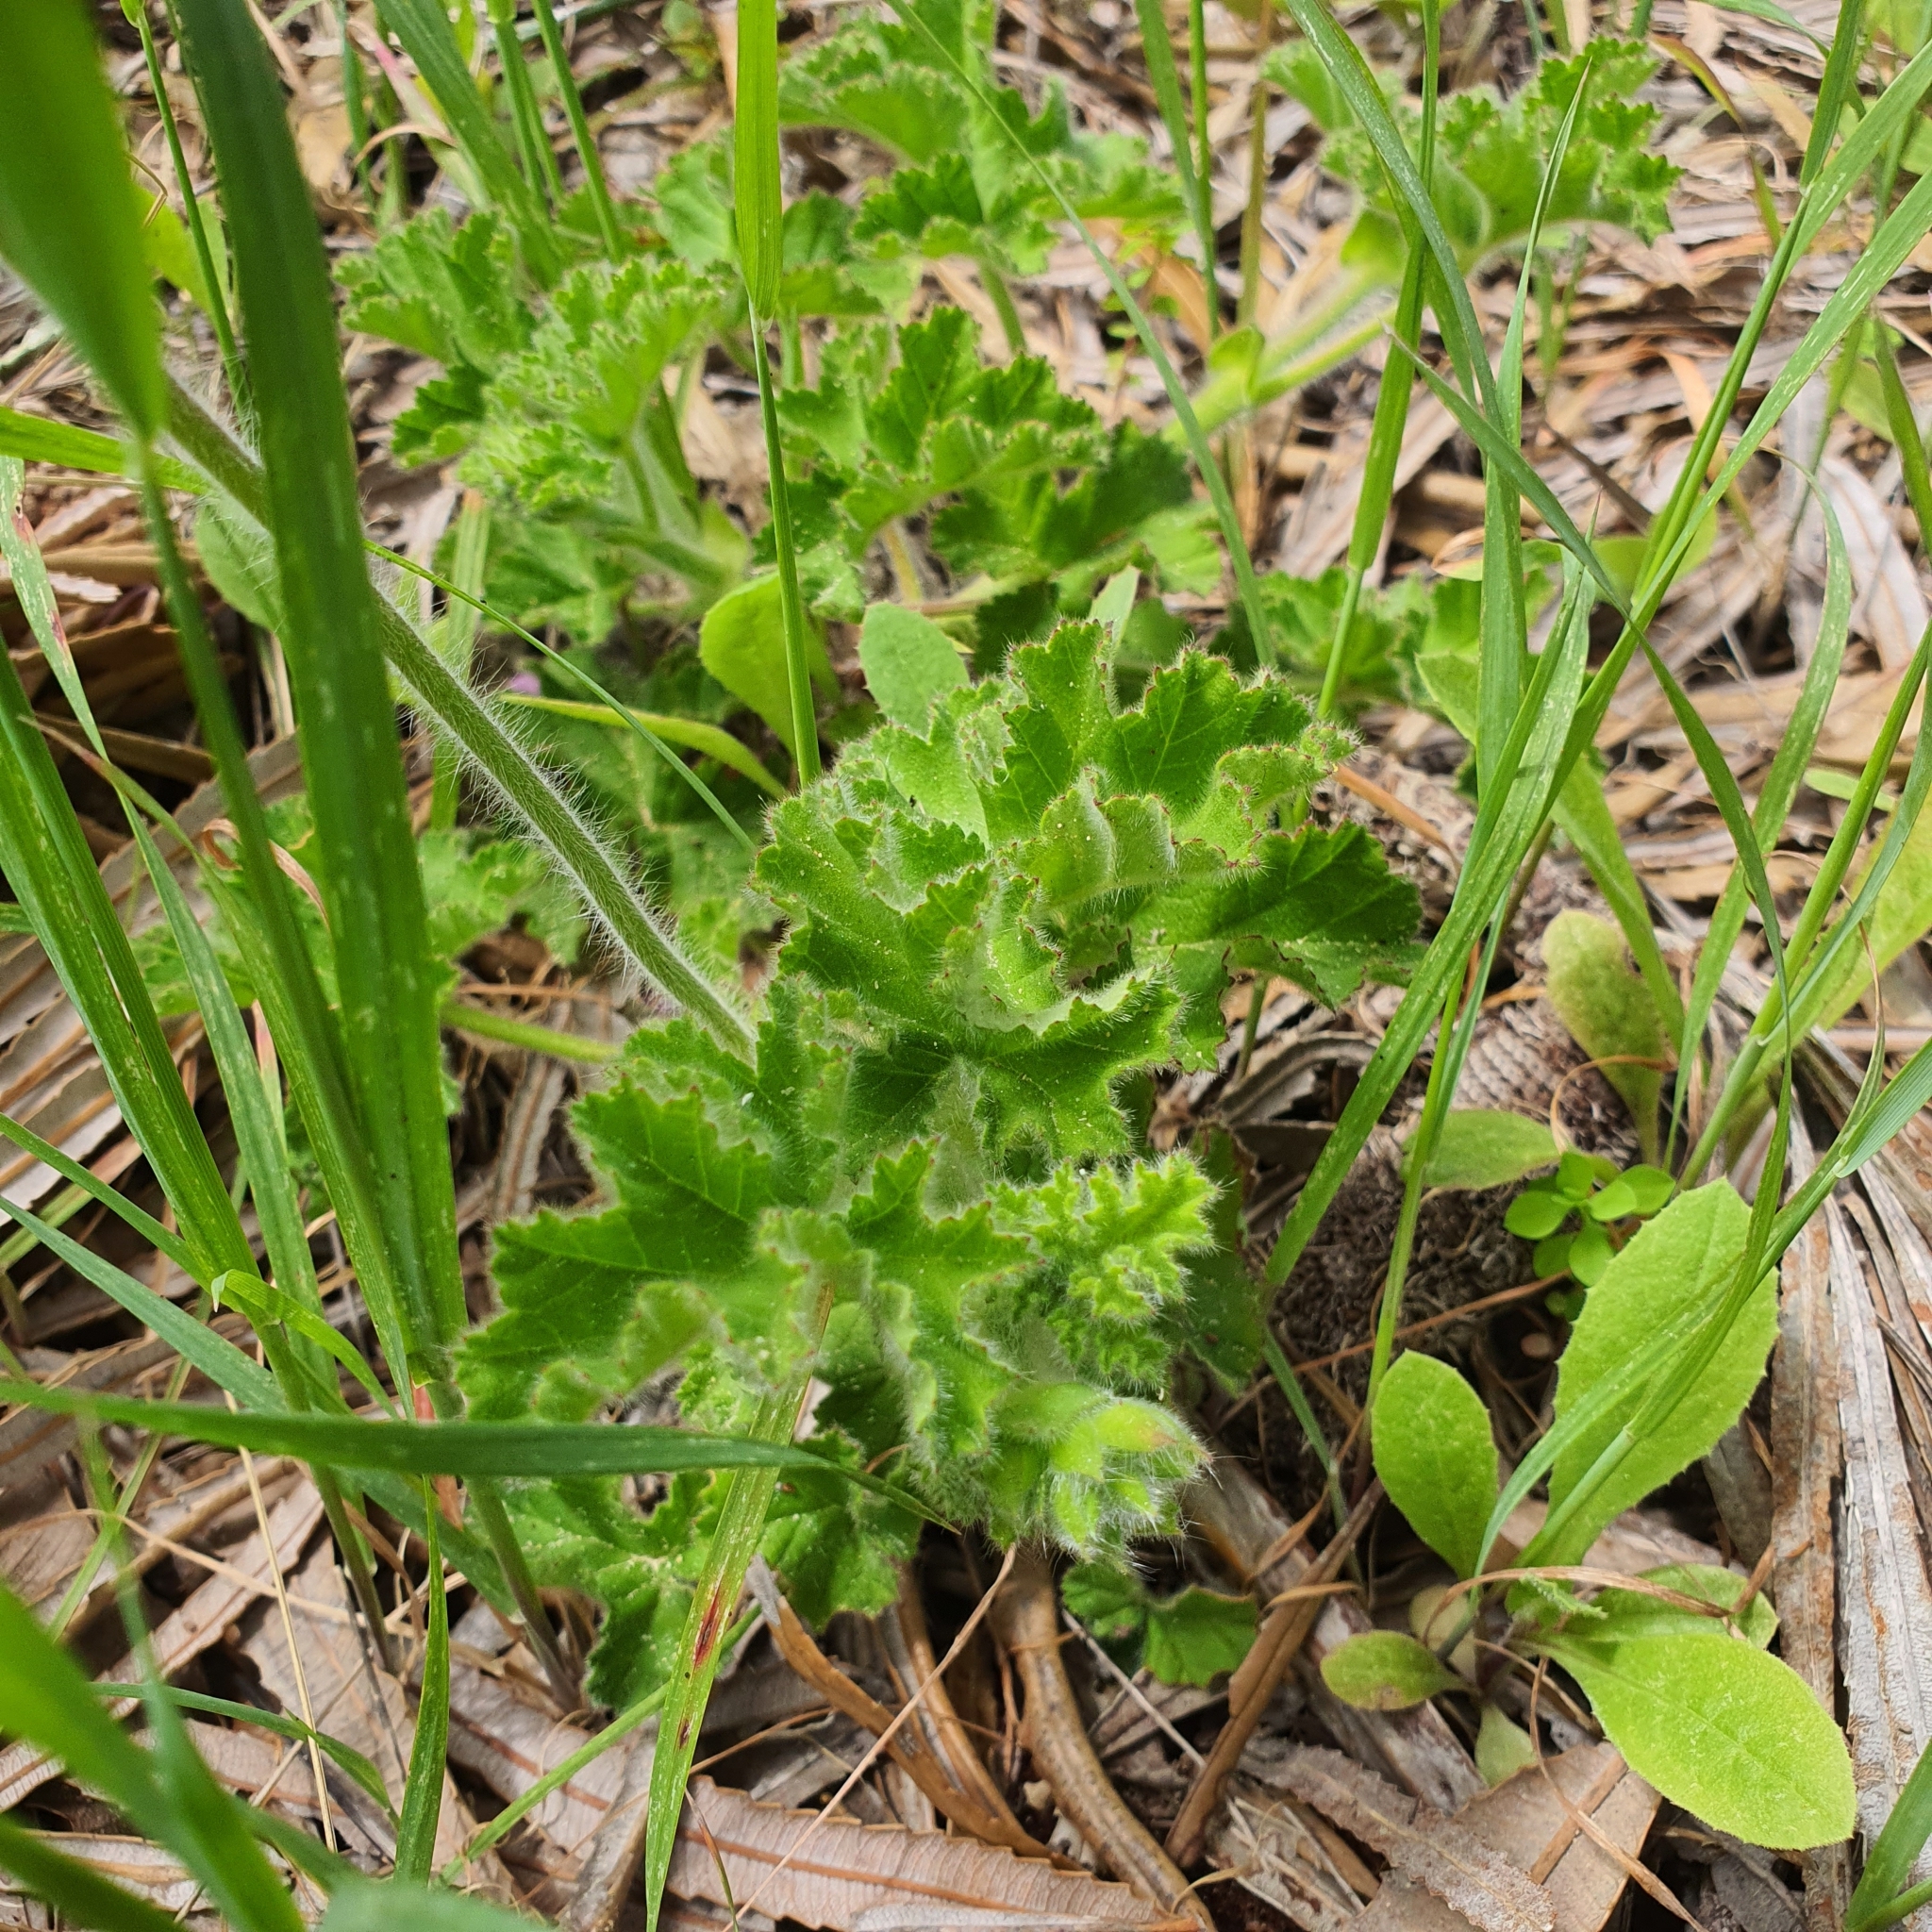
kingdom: Plantae
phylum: Tracheophyta
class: Magnoliopsida
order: Geraniales
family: Geraniaceae
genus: Pelargonium
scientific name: Pelargonium capitatum
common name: Rose scented geranium
